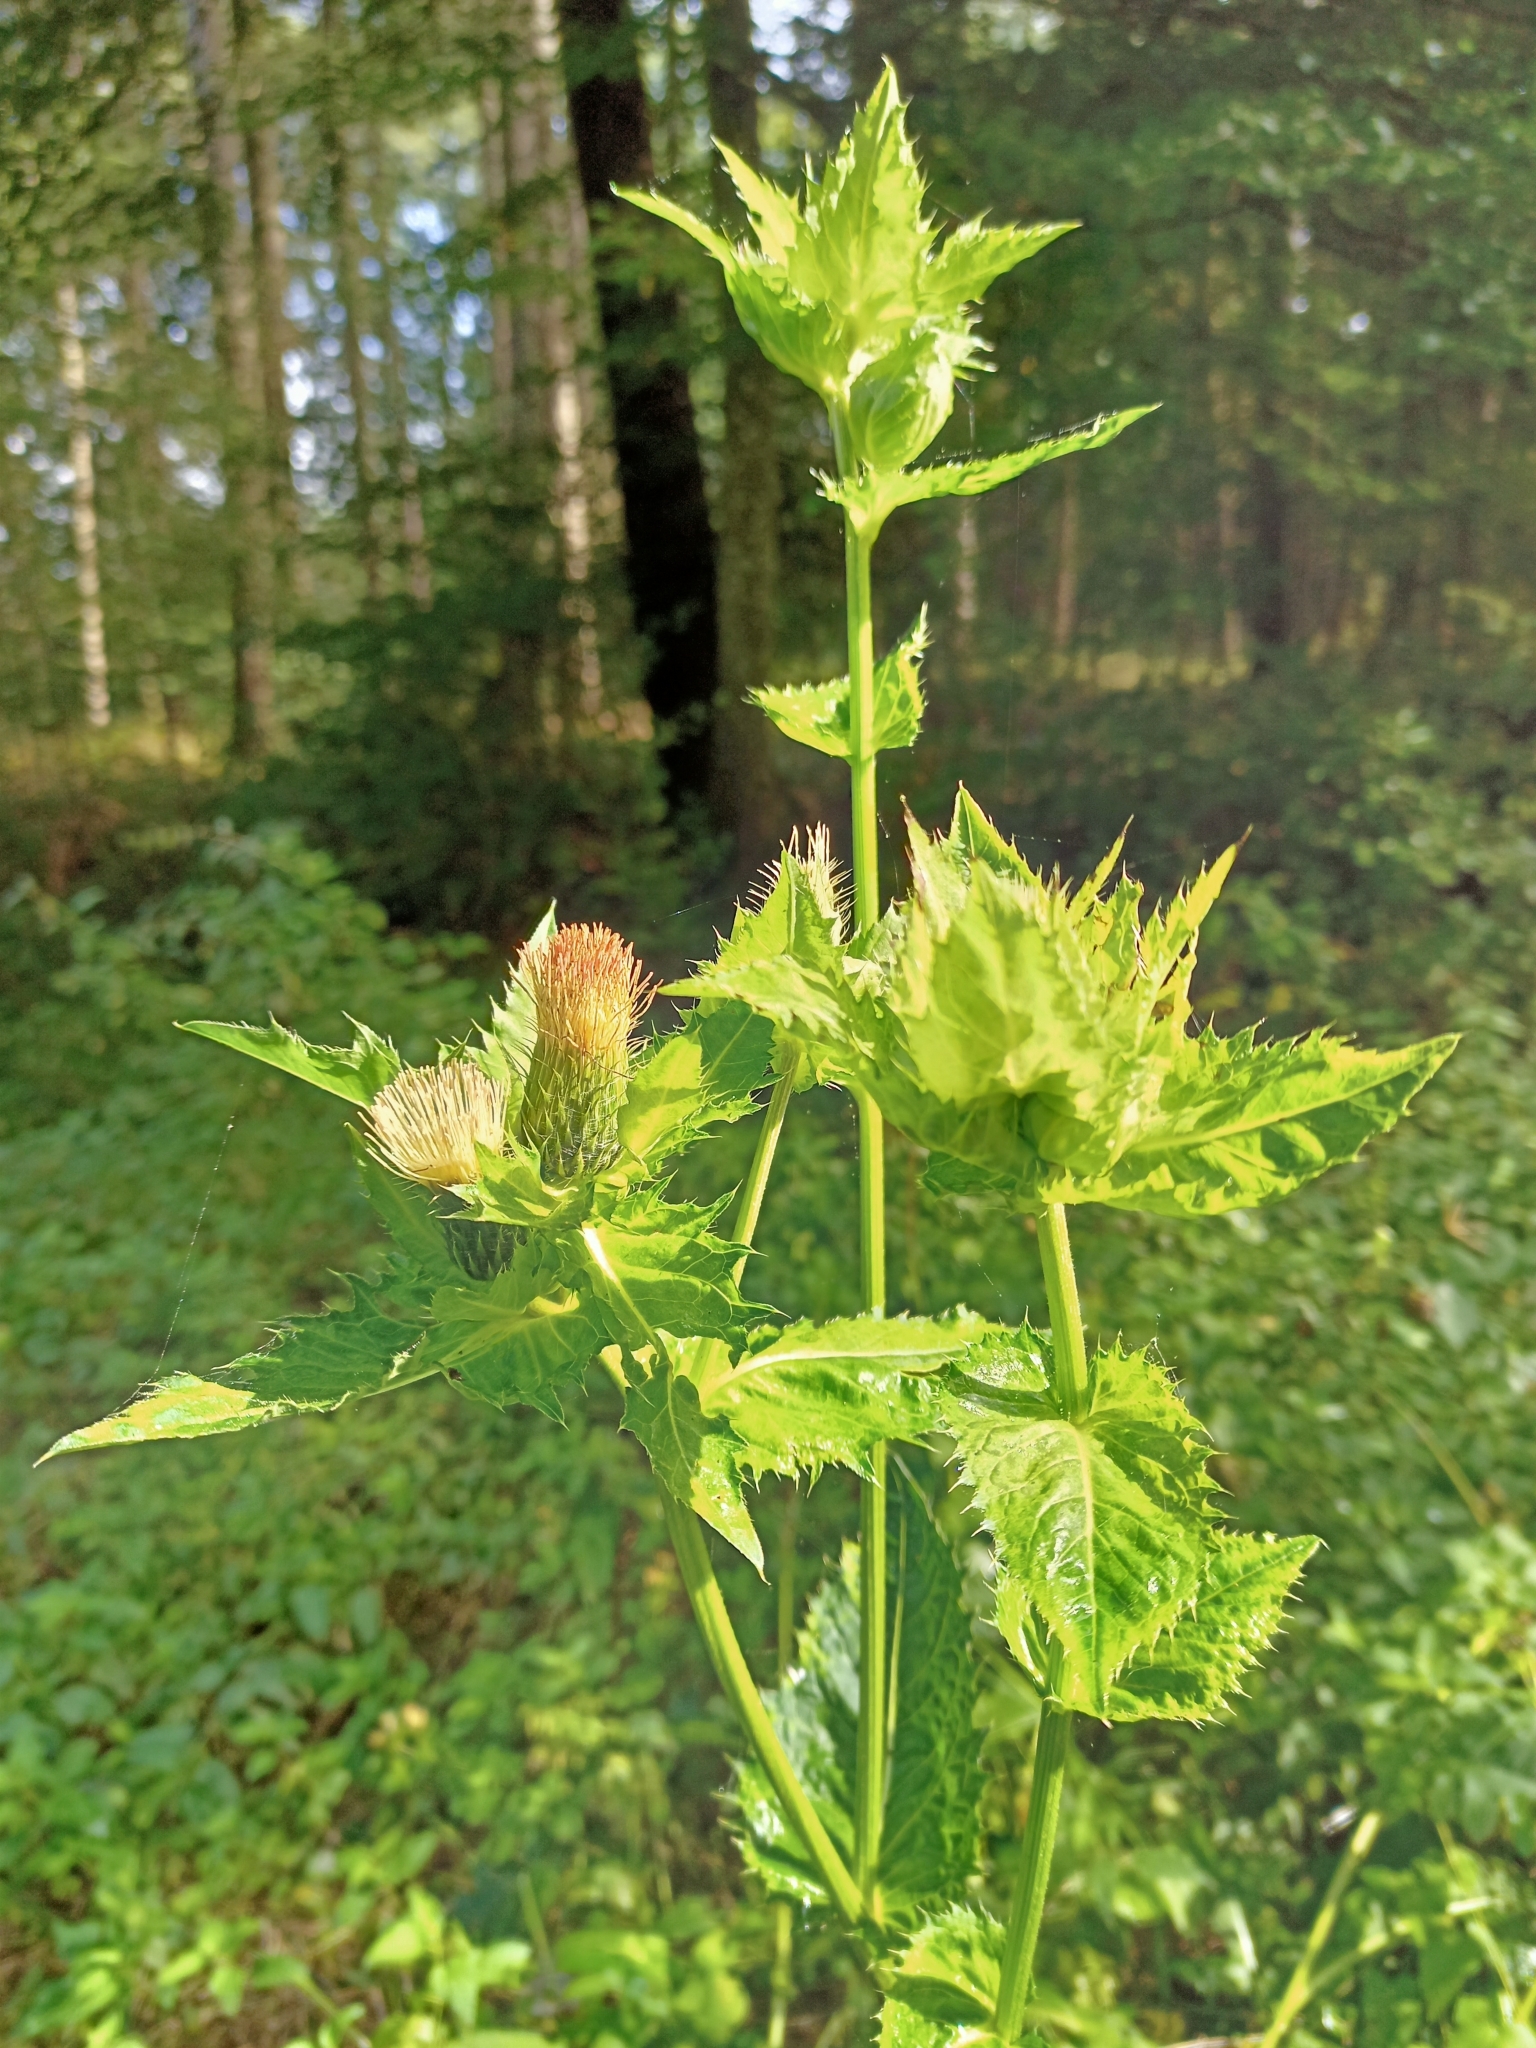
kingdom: Plantae
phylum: Tracheophyta
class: Magnoliopsida
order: Asterales
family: Asteraceae
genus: Cirsium
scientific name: Cirsium oleraceum
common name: Cabbage thistle
